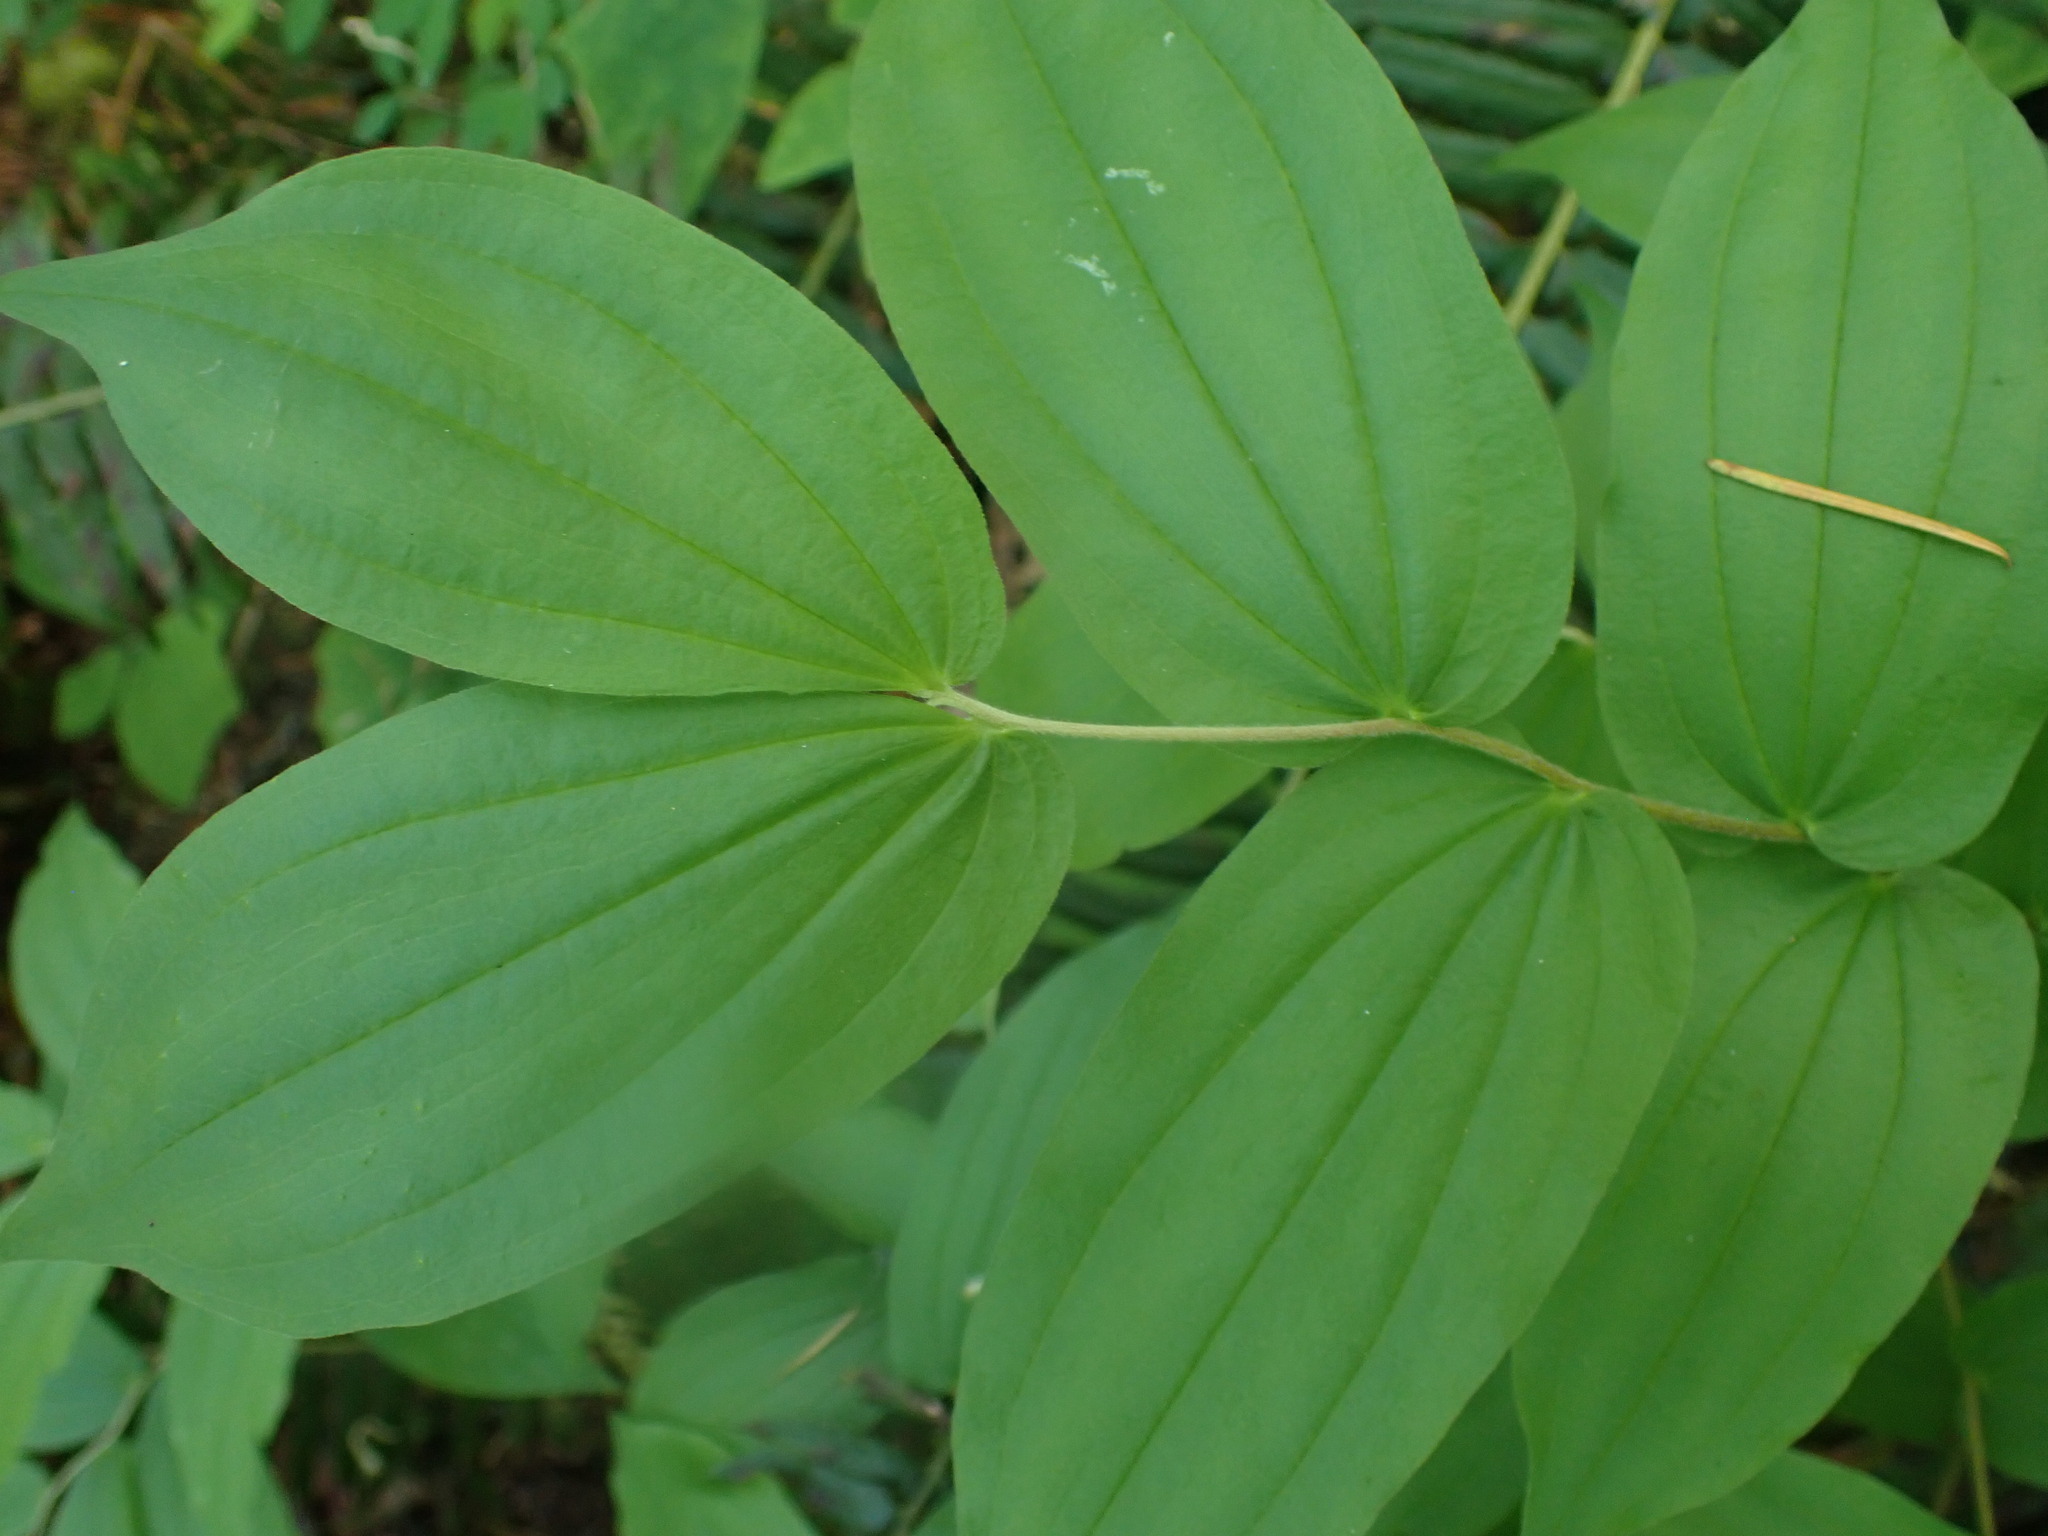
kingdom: Plantae
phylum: Tracheophyta
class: Liliopsida
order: Liliales
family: Liliaceae
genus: Prosartes
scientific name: Prosartes hookeri
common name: Fairy-bells
